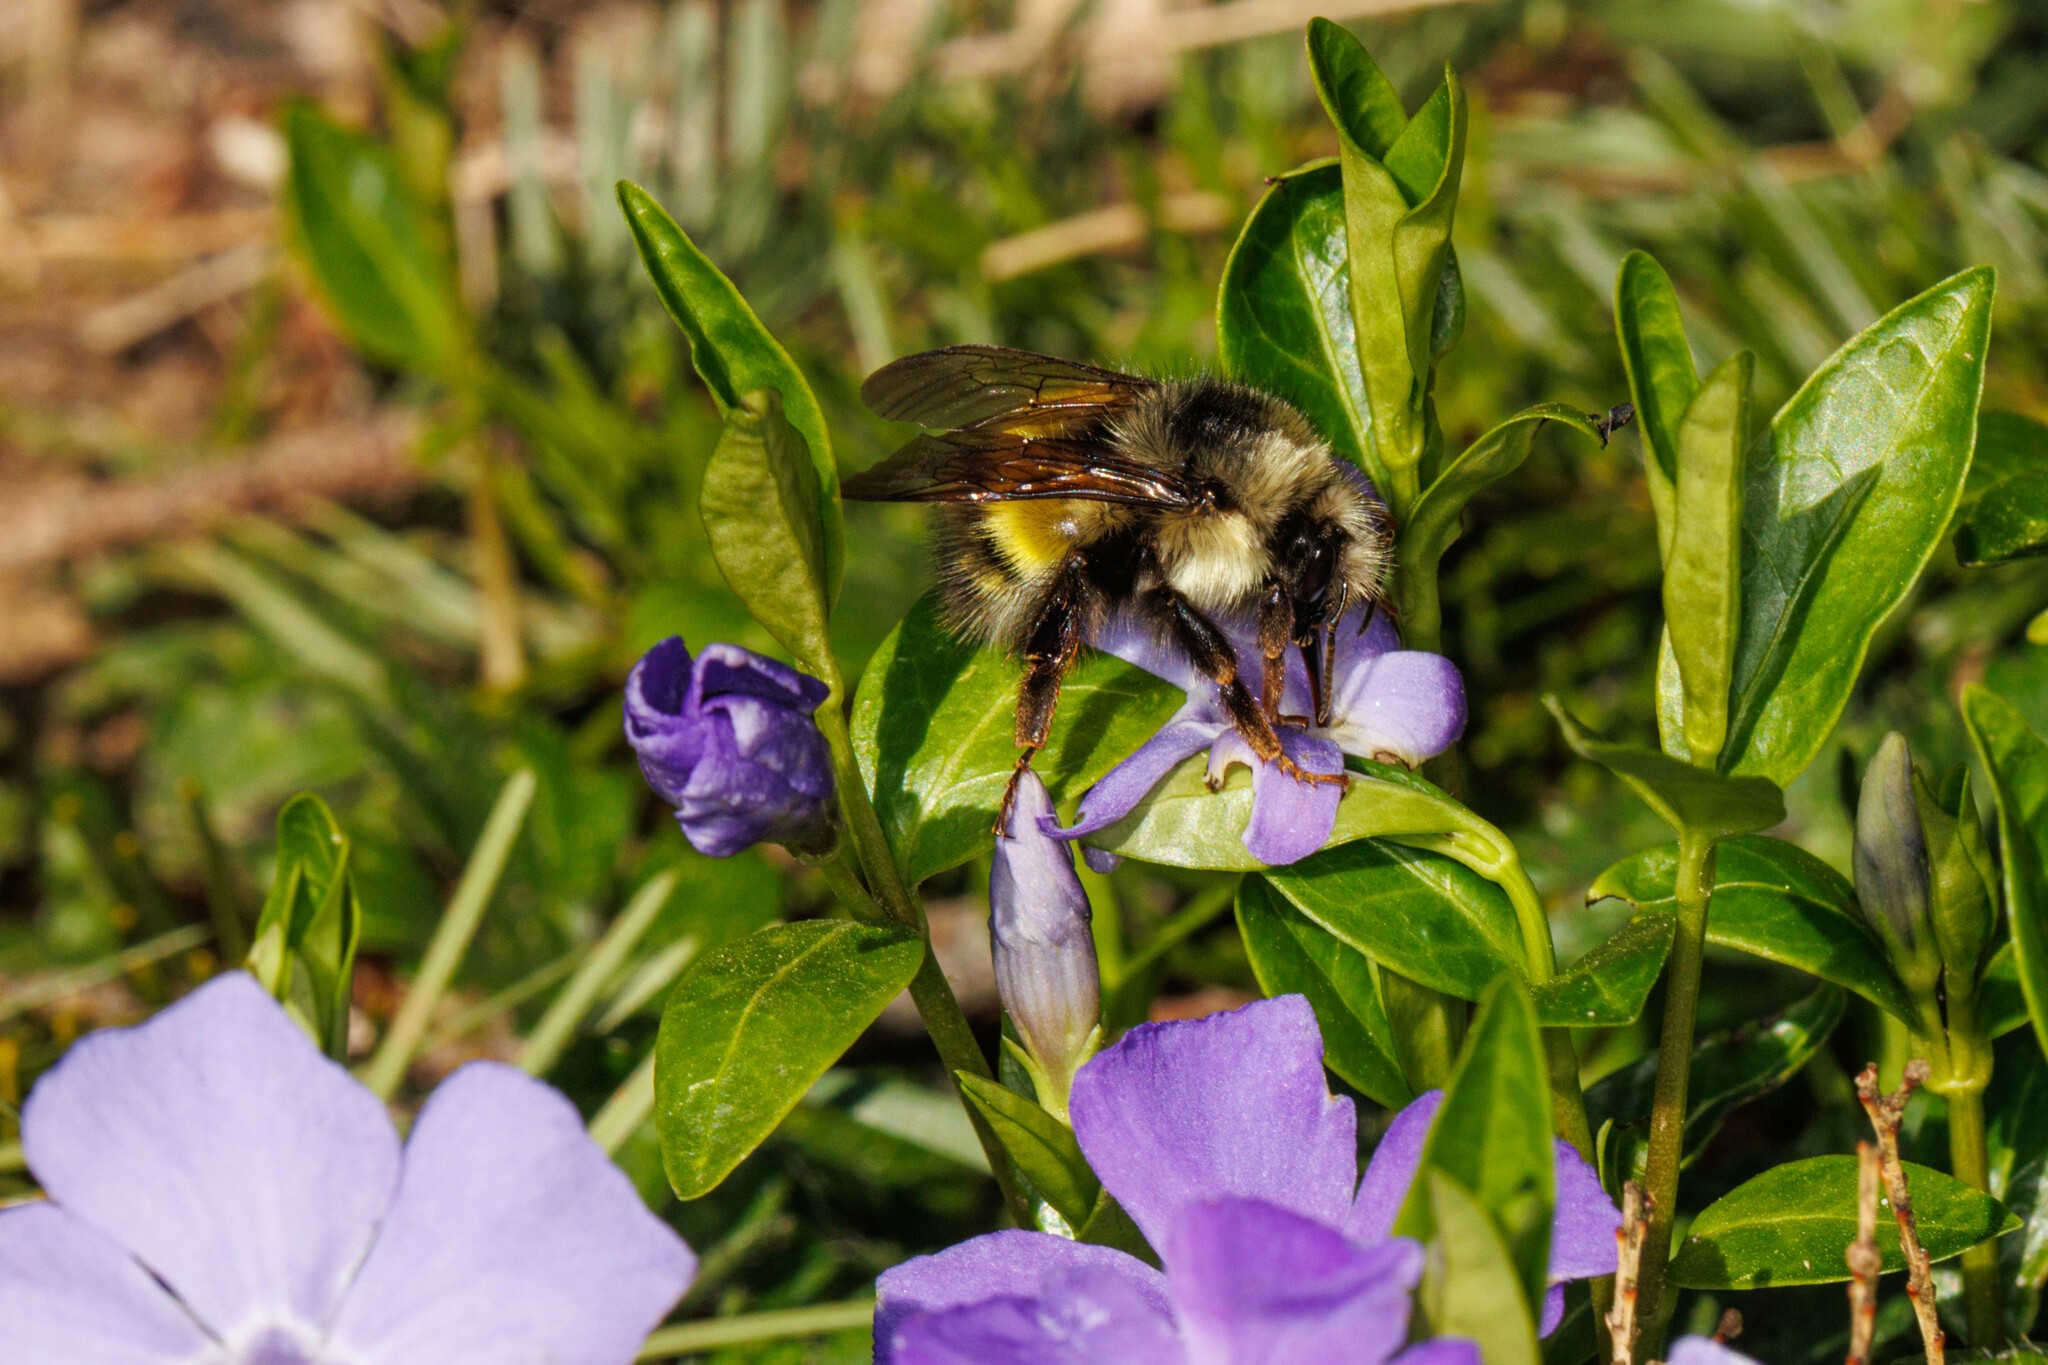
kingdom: Animalia
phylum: Arthropoda
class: Insecta
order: Hymenoptera
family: Apidae
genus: Bombus
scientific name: Bombus flavifrons
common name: Yellow head bumble bee
